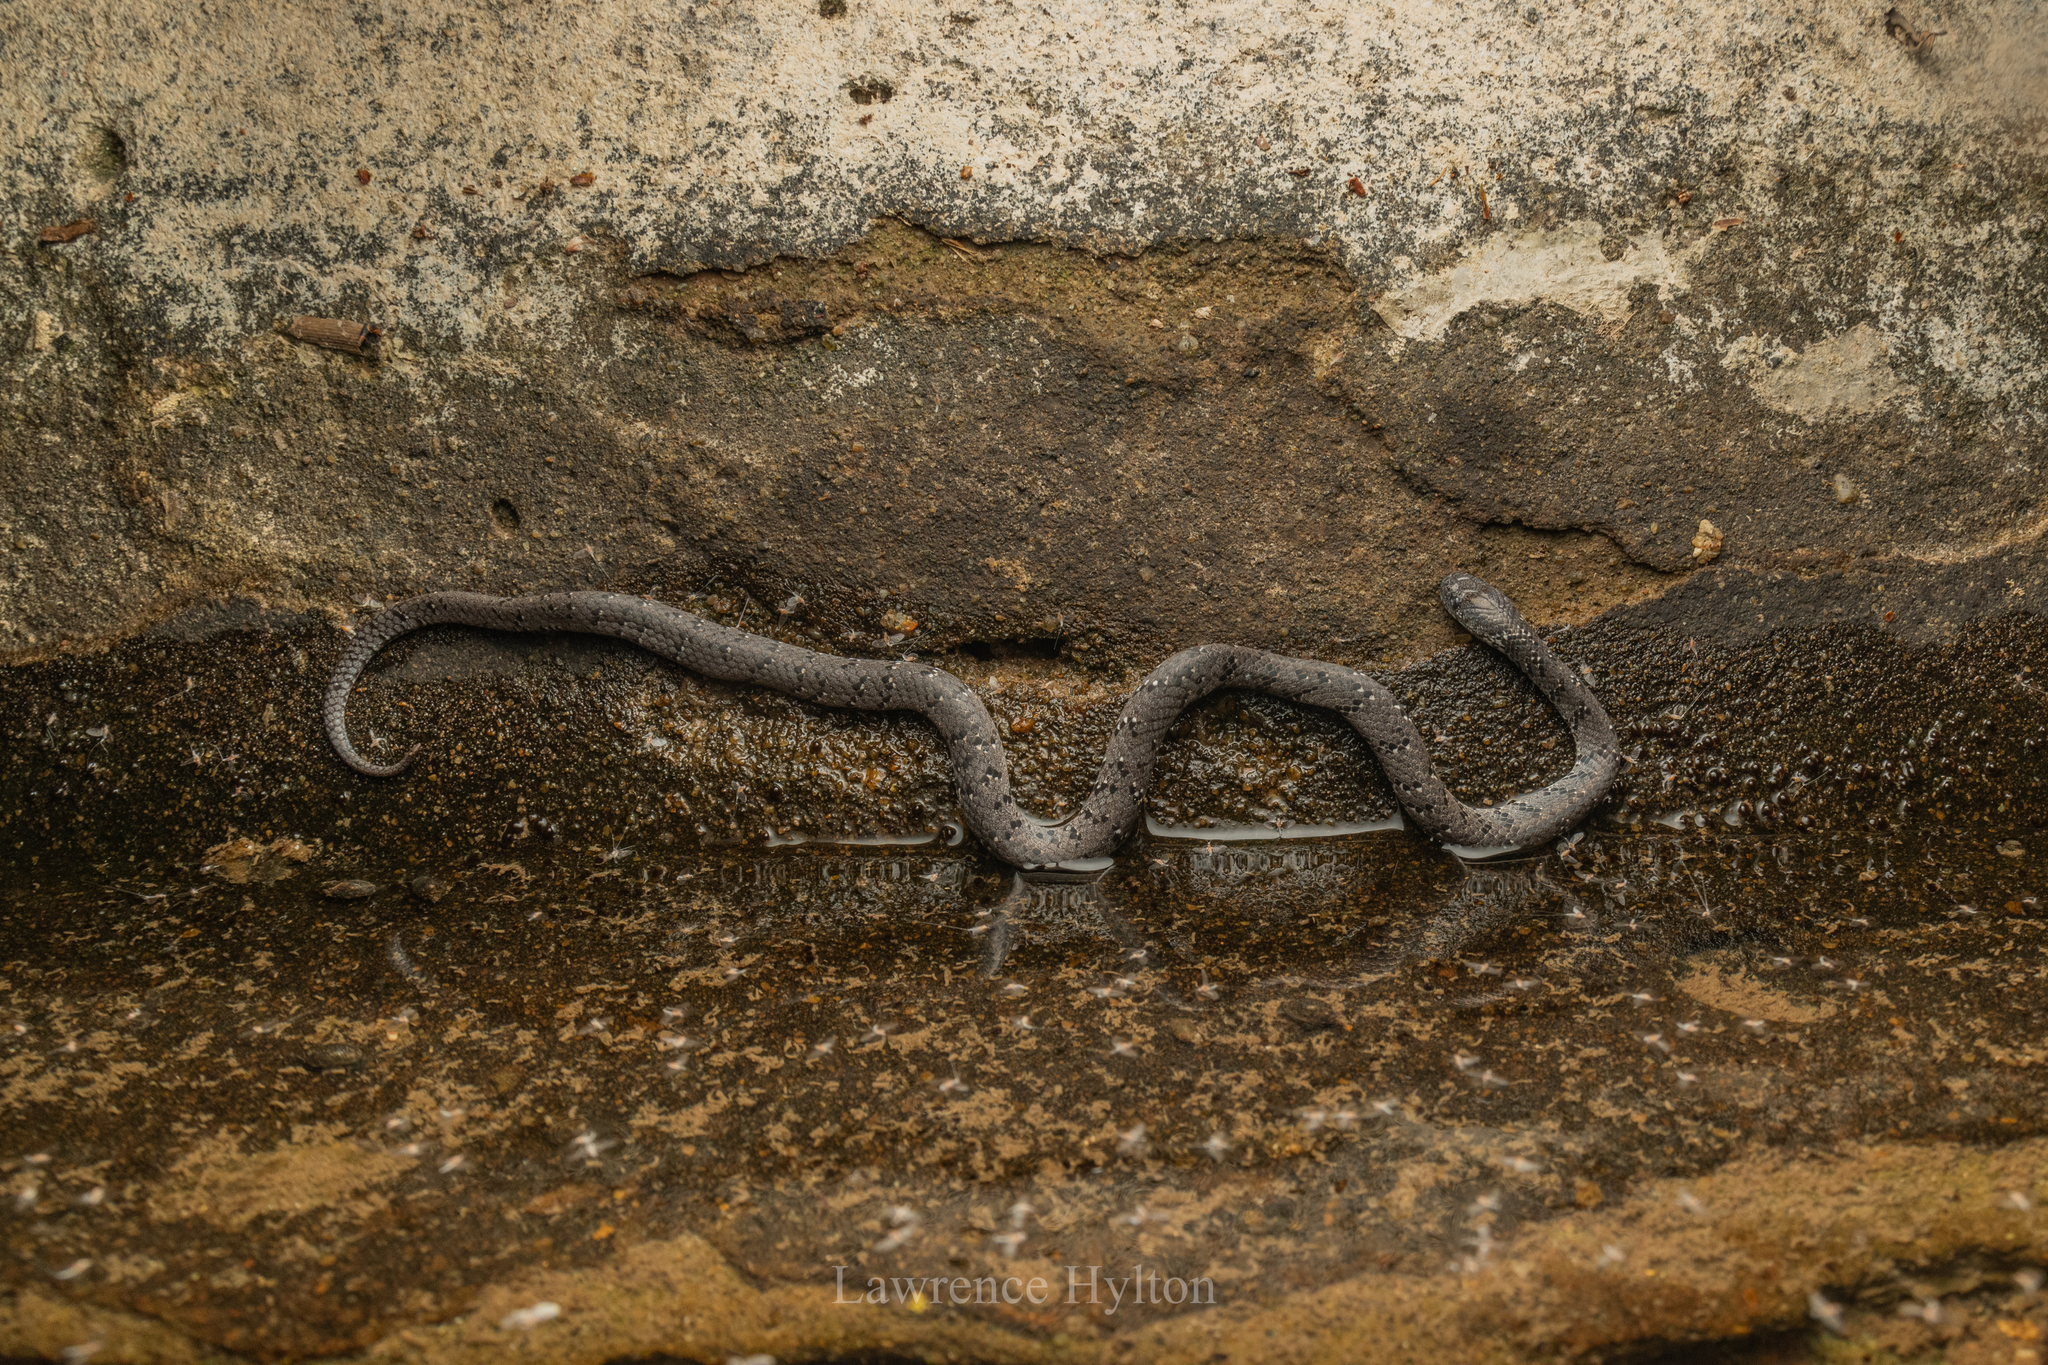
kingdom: Animalia
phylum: Chordata
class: Squamata
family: Pareidae
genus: Pareas
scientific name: Pareas margaritophorus
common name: Mountain slug snake
